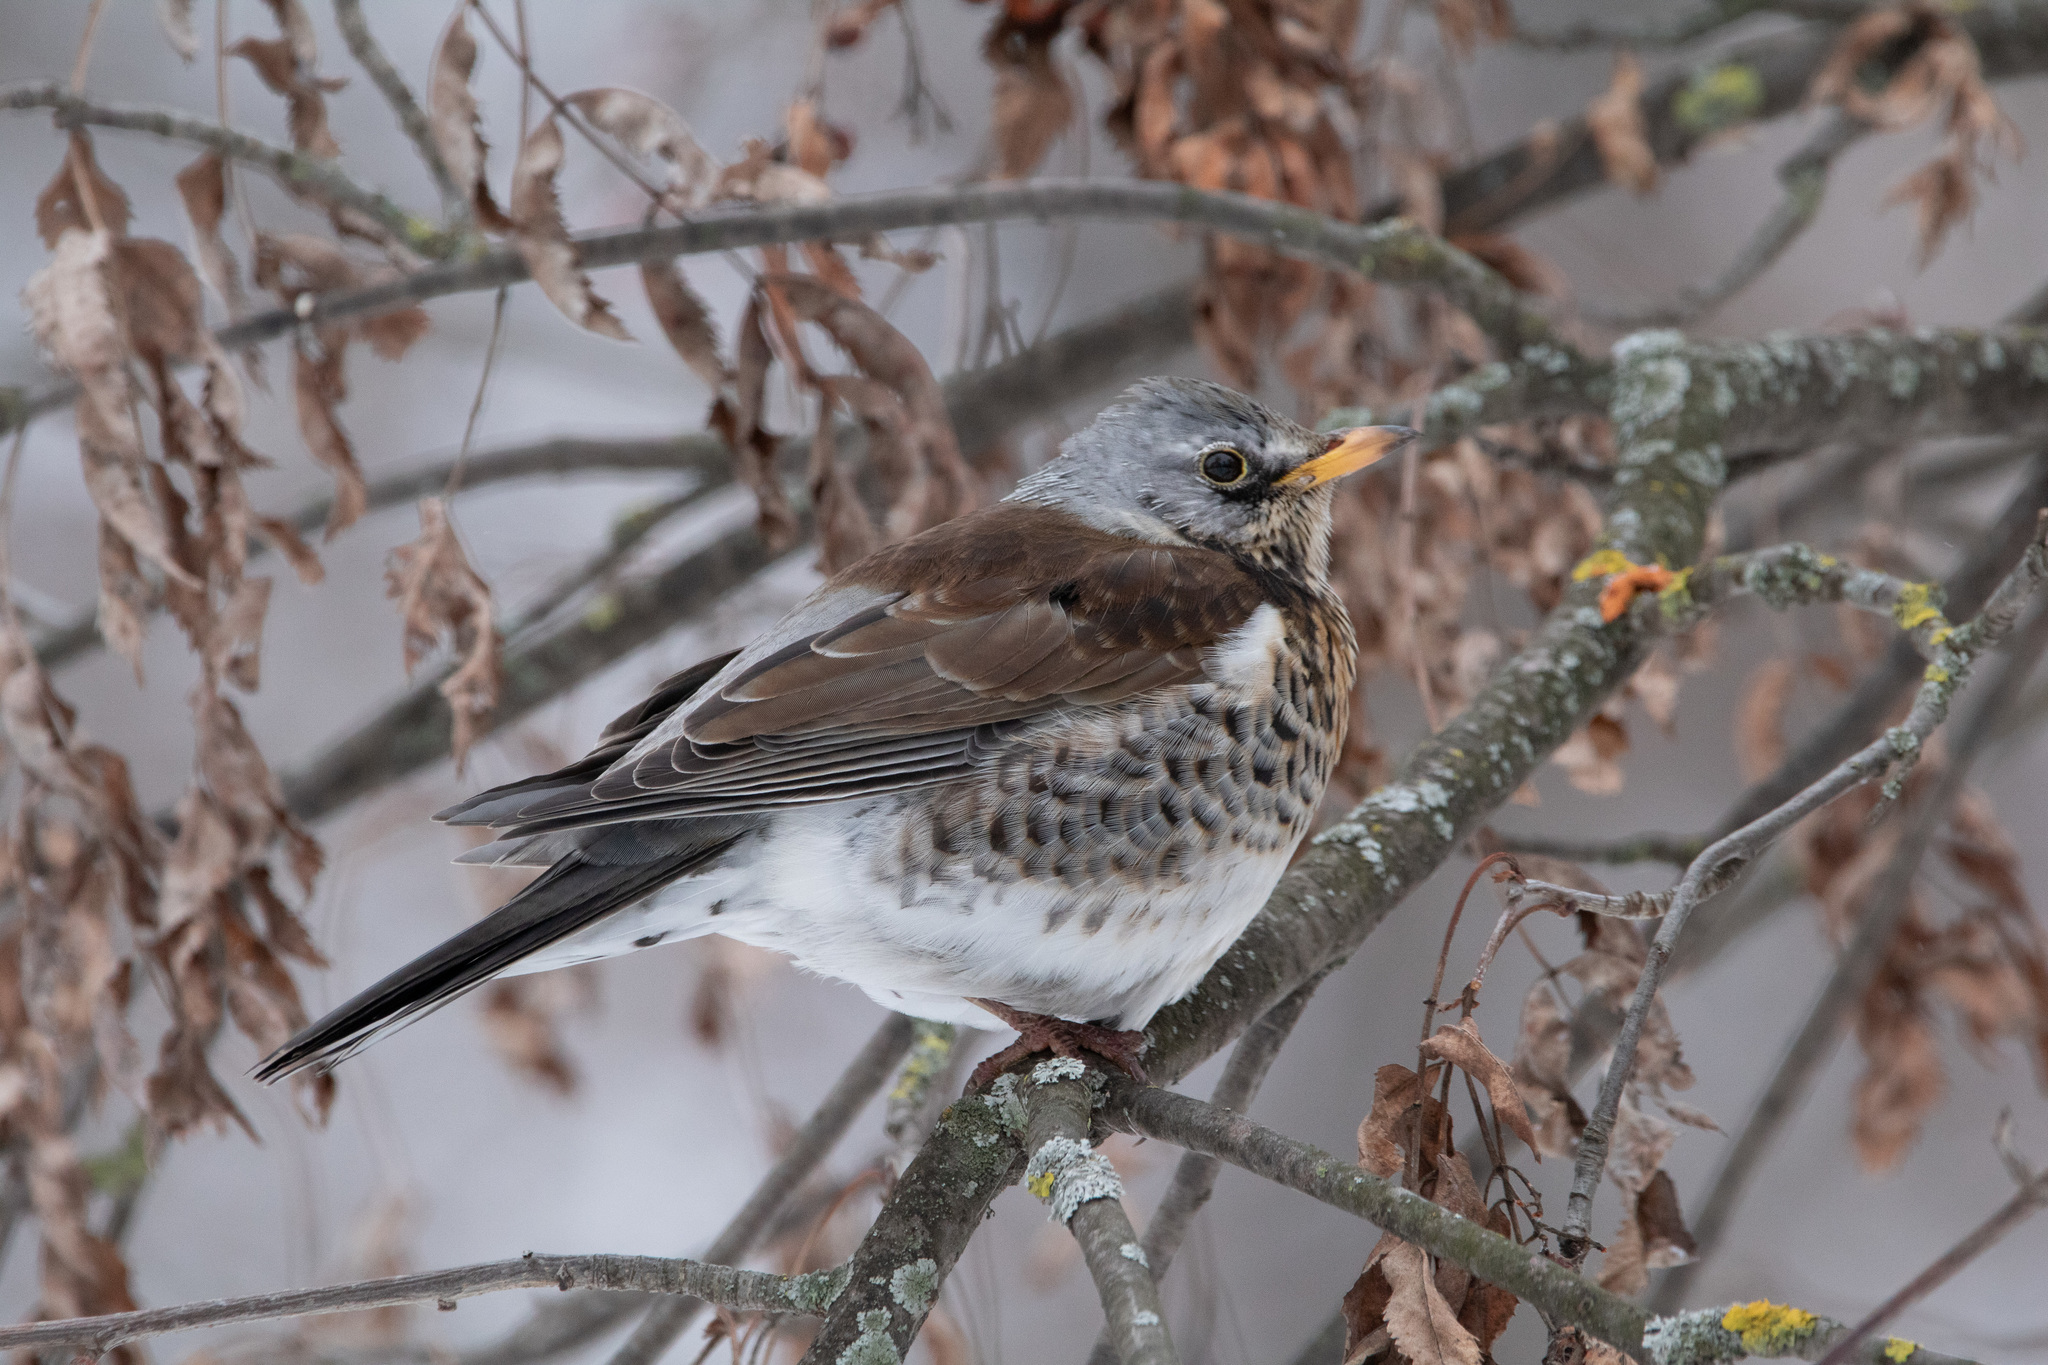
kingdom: Animalia
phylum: Chordata
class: Aves
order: Passeriformes
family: Turdidae
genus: Turdus
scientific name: Turdus pilaris
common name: Fieldfare
